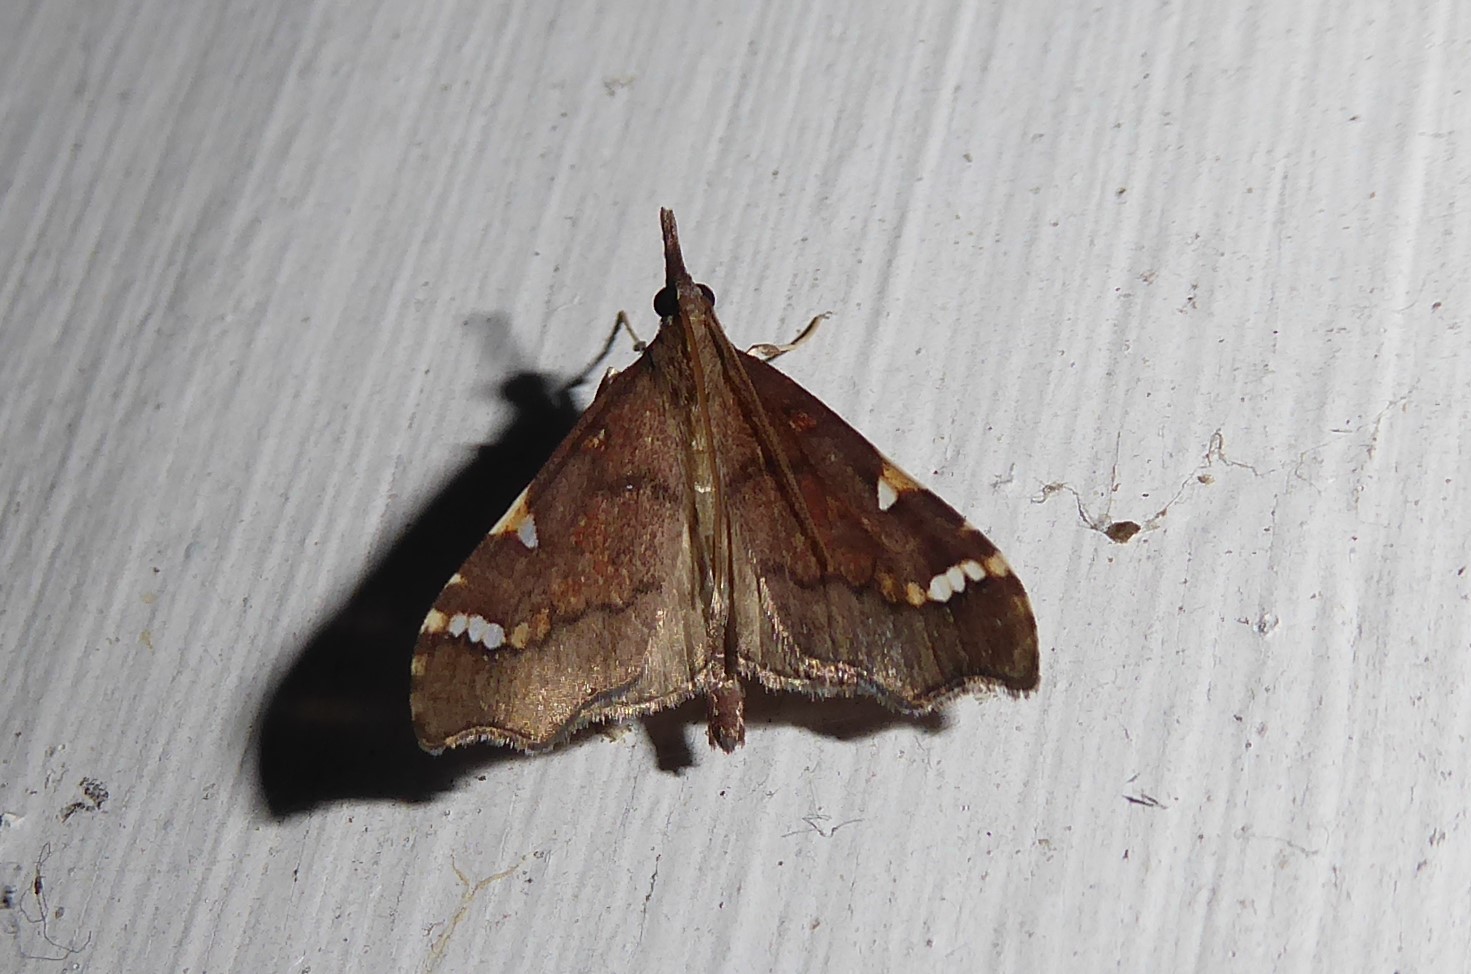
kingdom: Animalia
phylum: Arthropoda
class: Insecta
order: Lepidoptera
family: Crambidae
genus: Deana
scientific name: Deana hybreasalis
